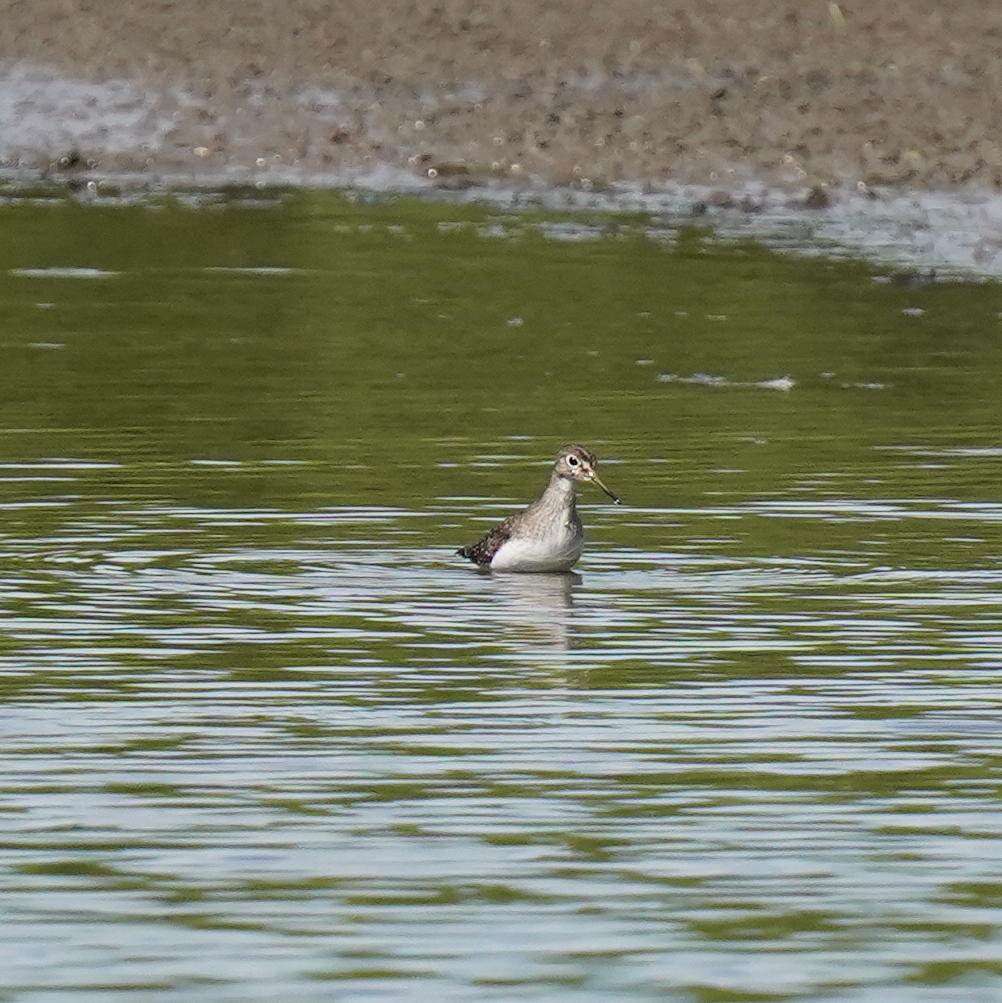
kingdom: Animalia
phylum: Chordata
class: Aves
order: Charadriiformes
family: Scolopacidae
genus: Tringa
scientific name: Tringa solitaria
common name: Solitary sandpiper
